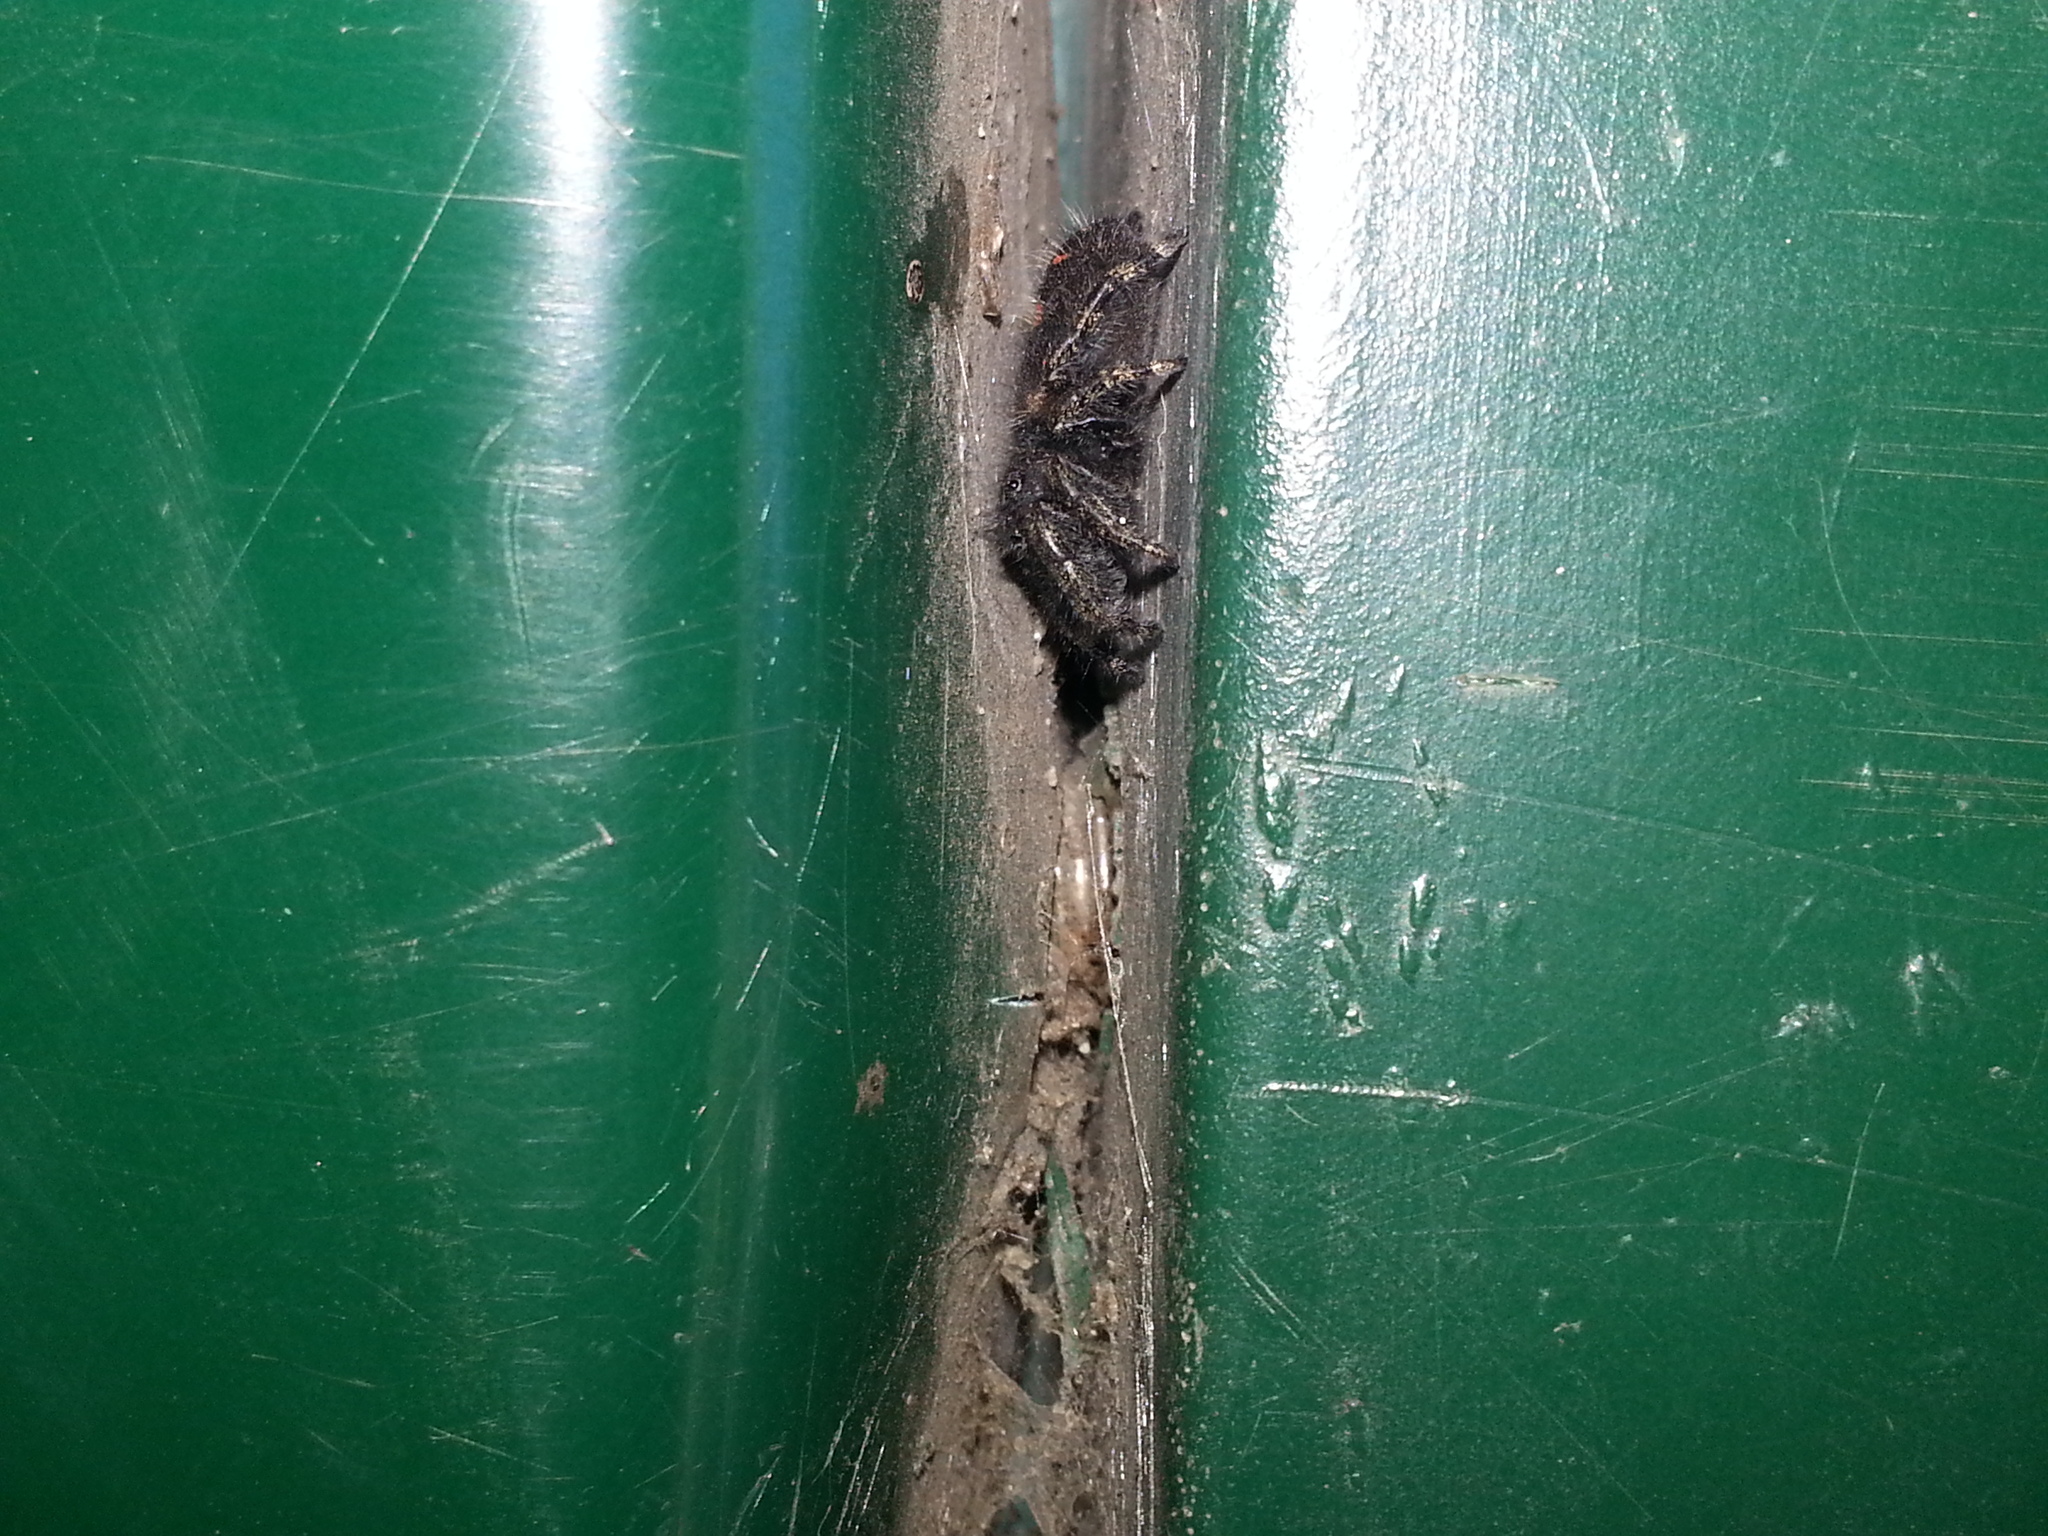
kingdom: Animalia
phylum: Arthropoda
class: Arachnida
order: Araneae
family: Salticidae
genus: Phidippus
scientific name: Phidippus audax
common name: Bold jumper
